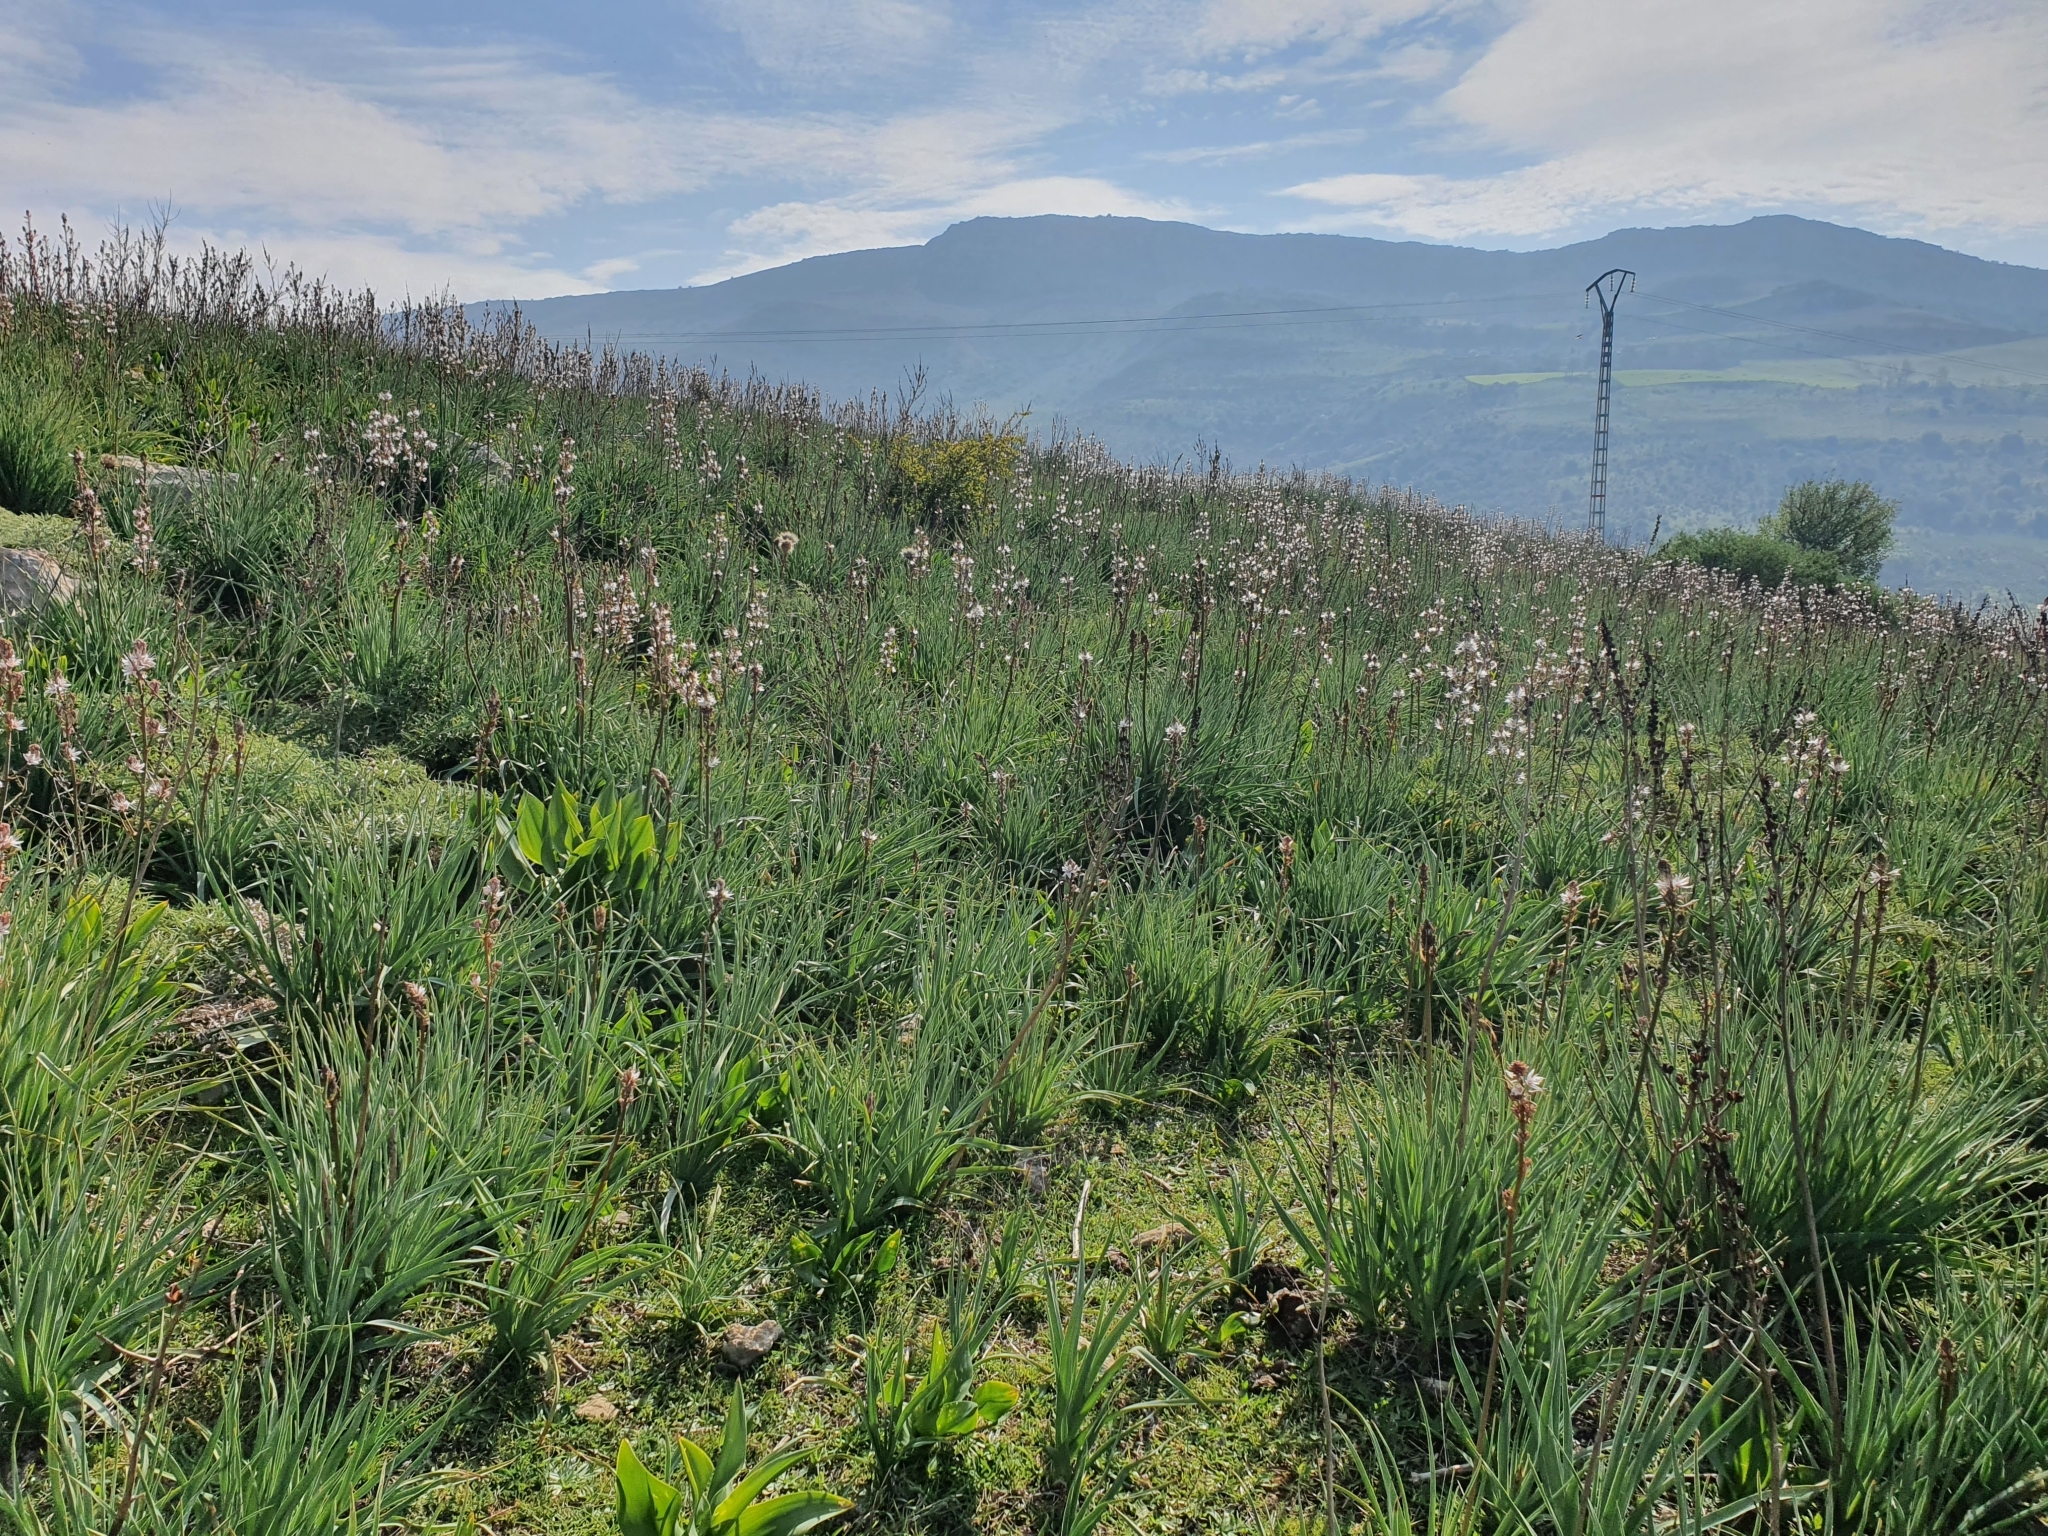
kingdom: Plantae
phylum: Tracheophyta
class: Liliopsida
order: Asparagales
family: Asphodelaceae
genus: Asphodelus
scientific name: Asphodelus ramosus
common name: Silverrod
